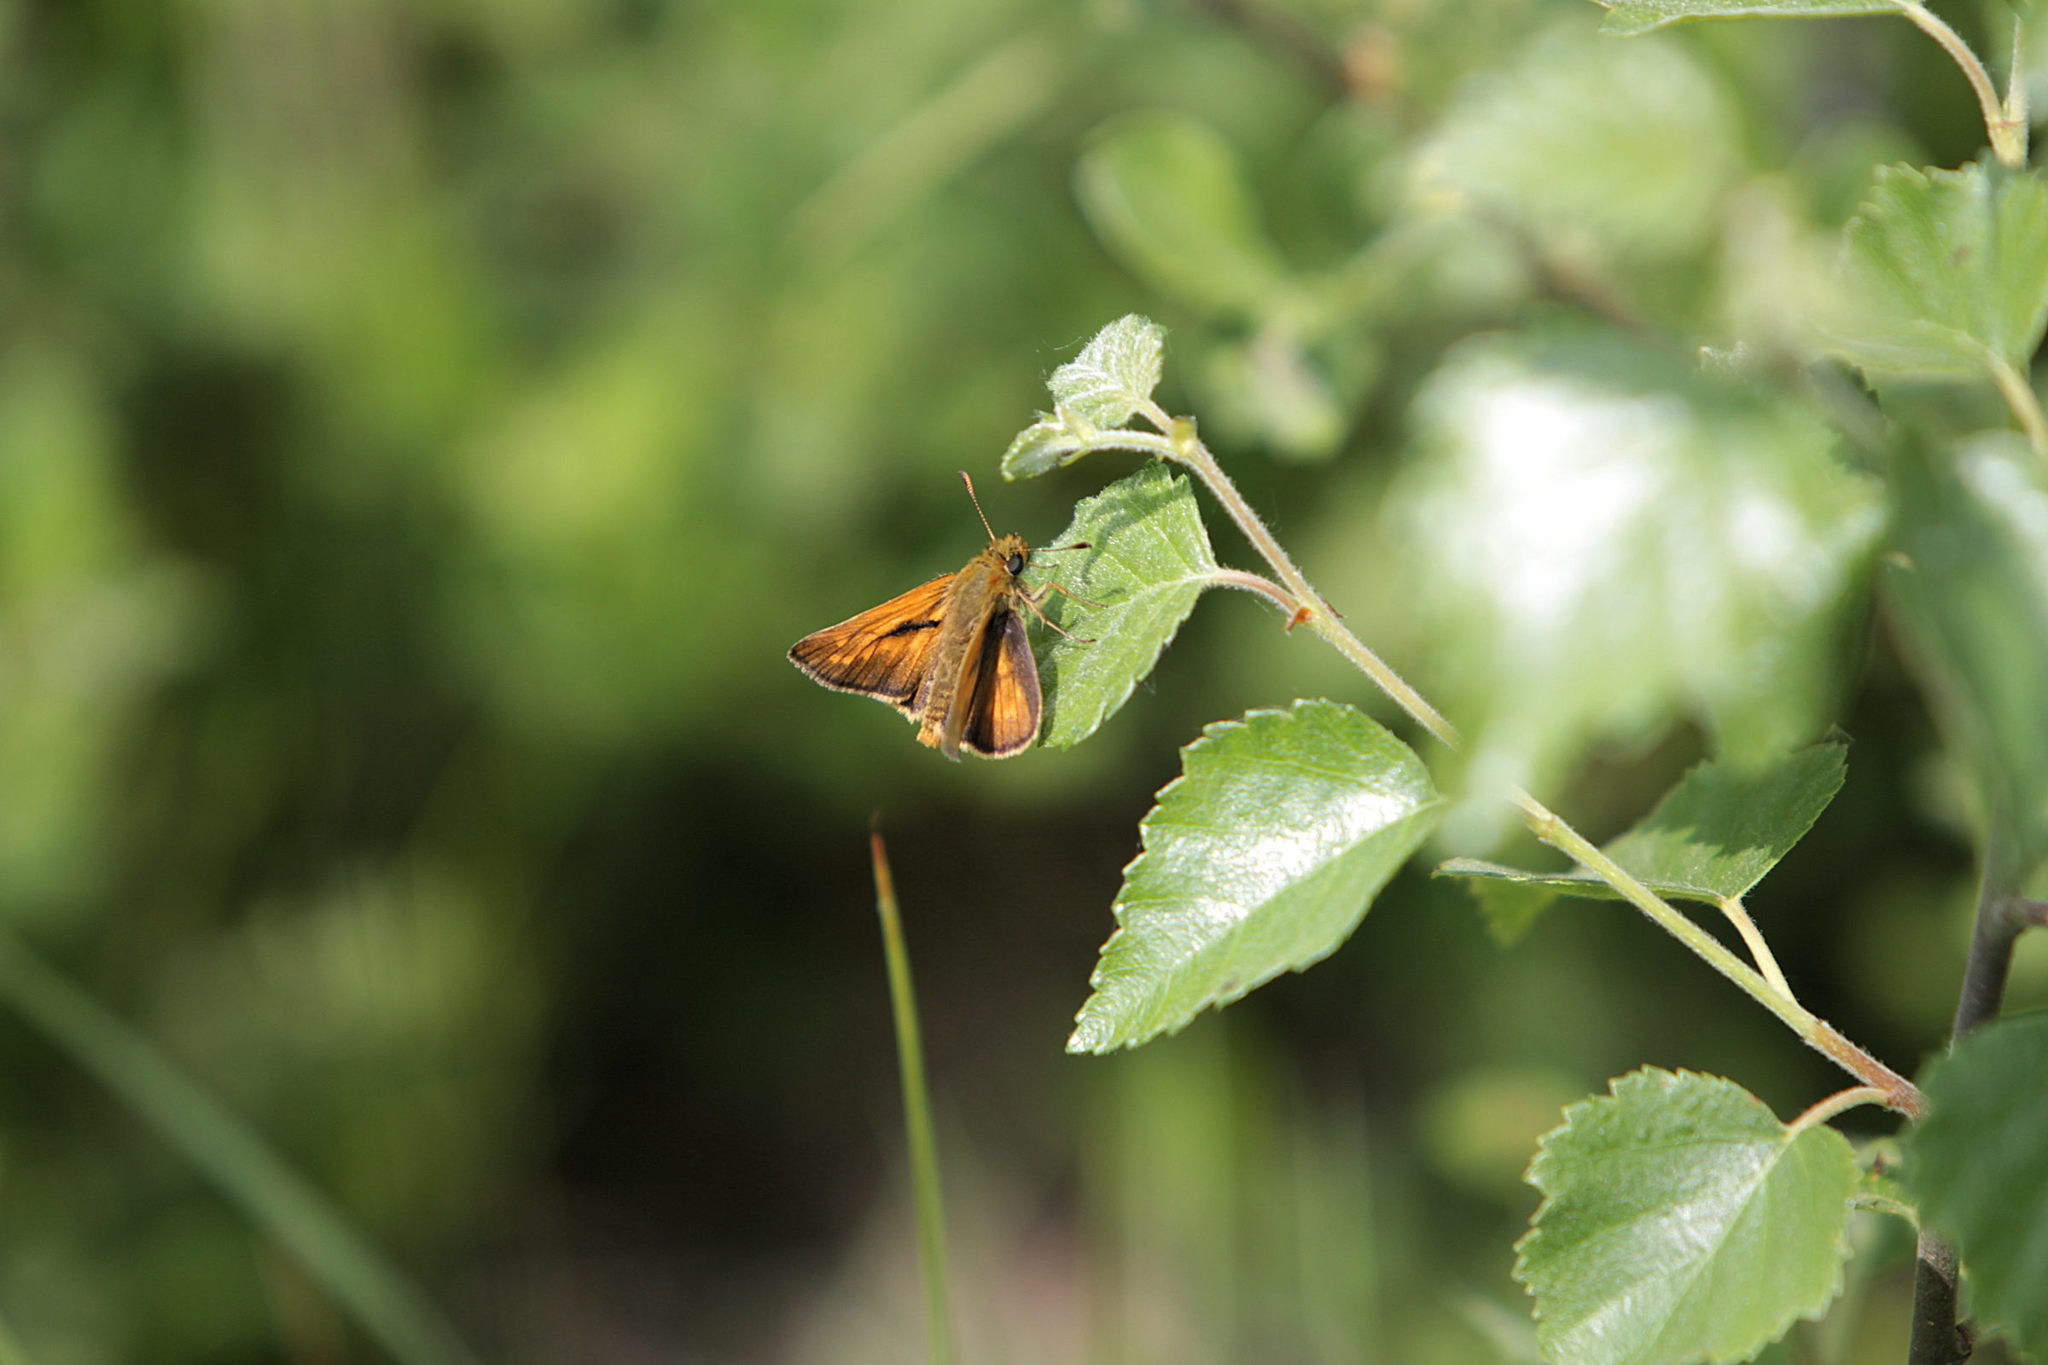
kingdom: Animalia
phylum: Arthropoda
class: Insecta
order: Lepidoptera
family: Hesperiidae
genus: Ochlodes
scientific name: Ochlodes venata
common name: Large skipper
